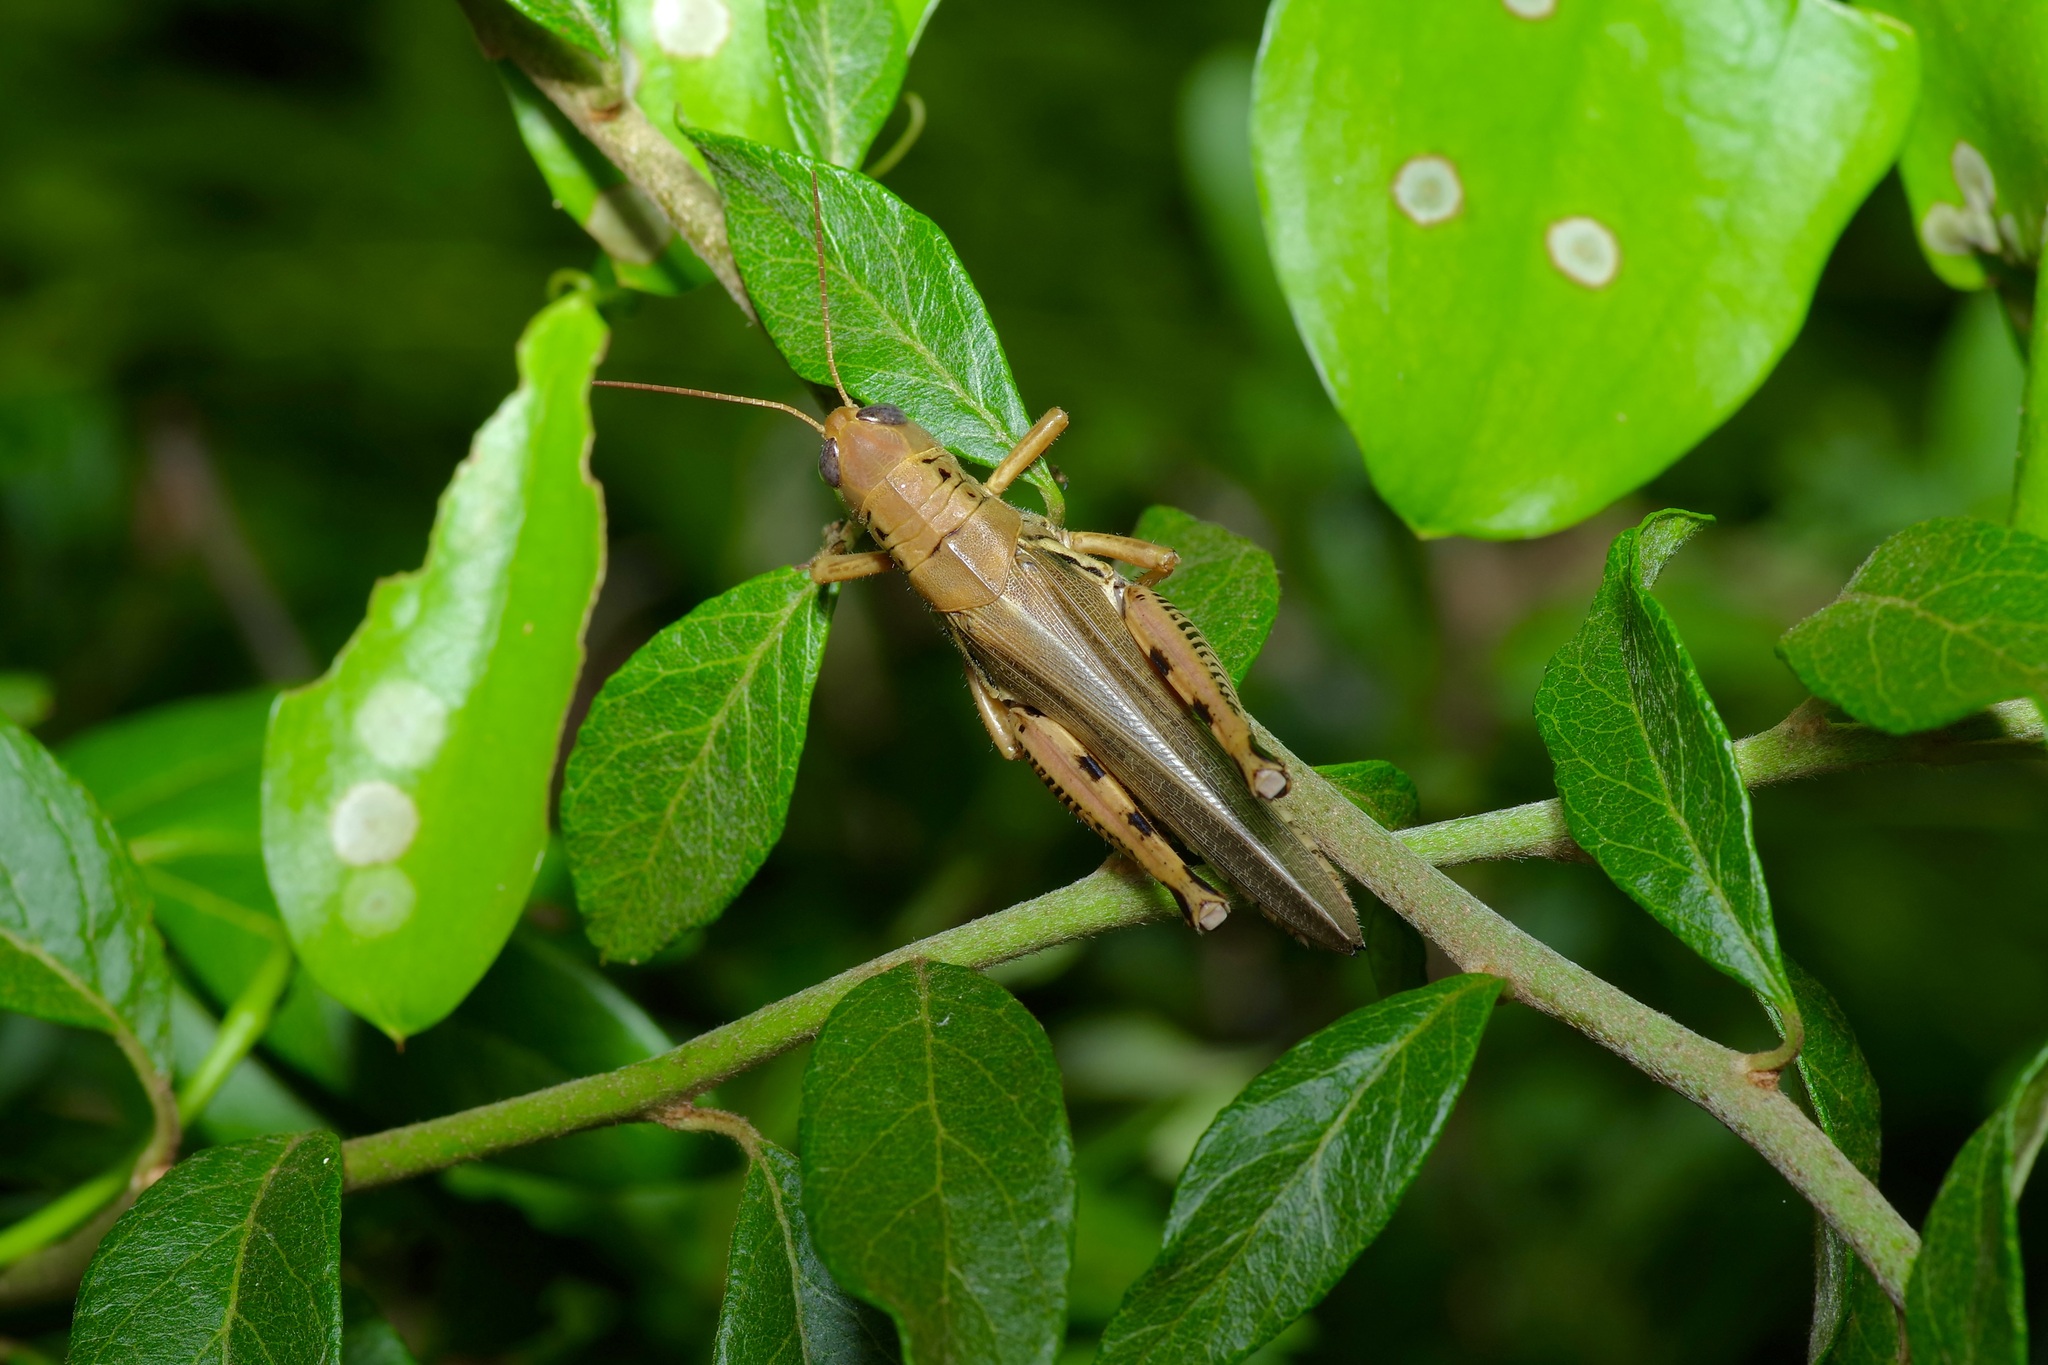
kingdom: Animalia
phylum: Arthropoda
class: Insecta
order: Orthoptera
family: Acrididae
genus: Melanoplus
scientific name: Melanoplus differentialis
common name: Differential grasshopper
